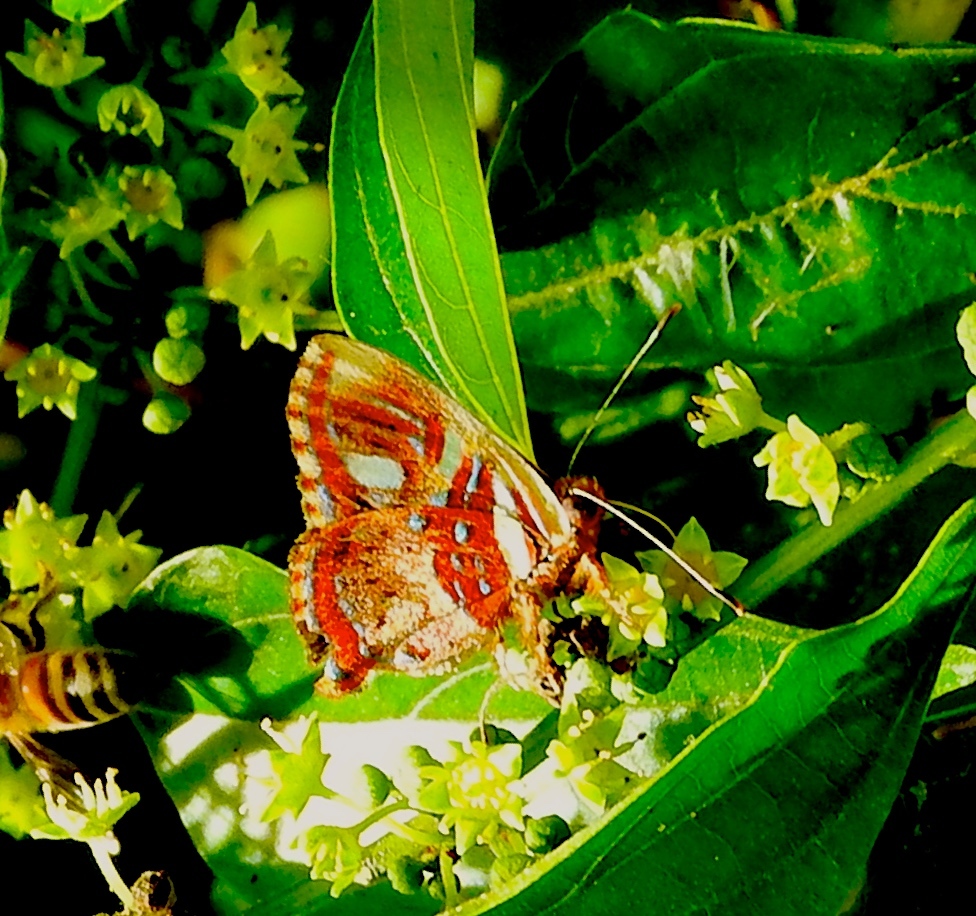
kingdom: Animalia
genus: Anteros
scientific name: Anteros carausius
